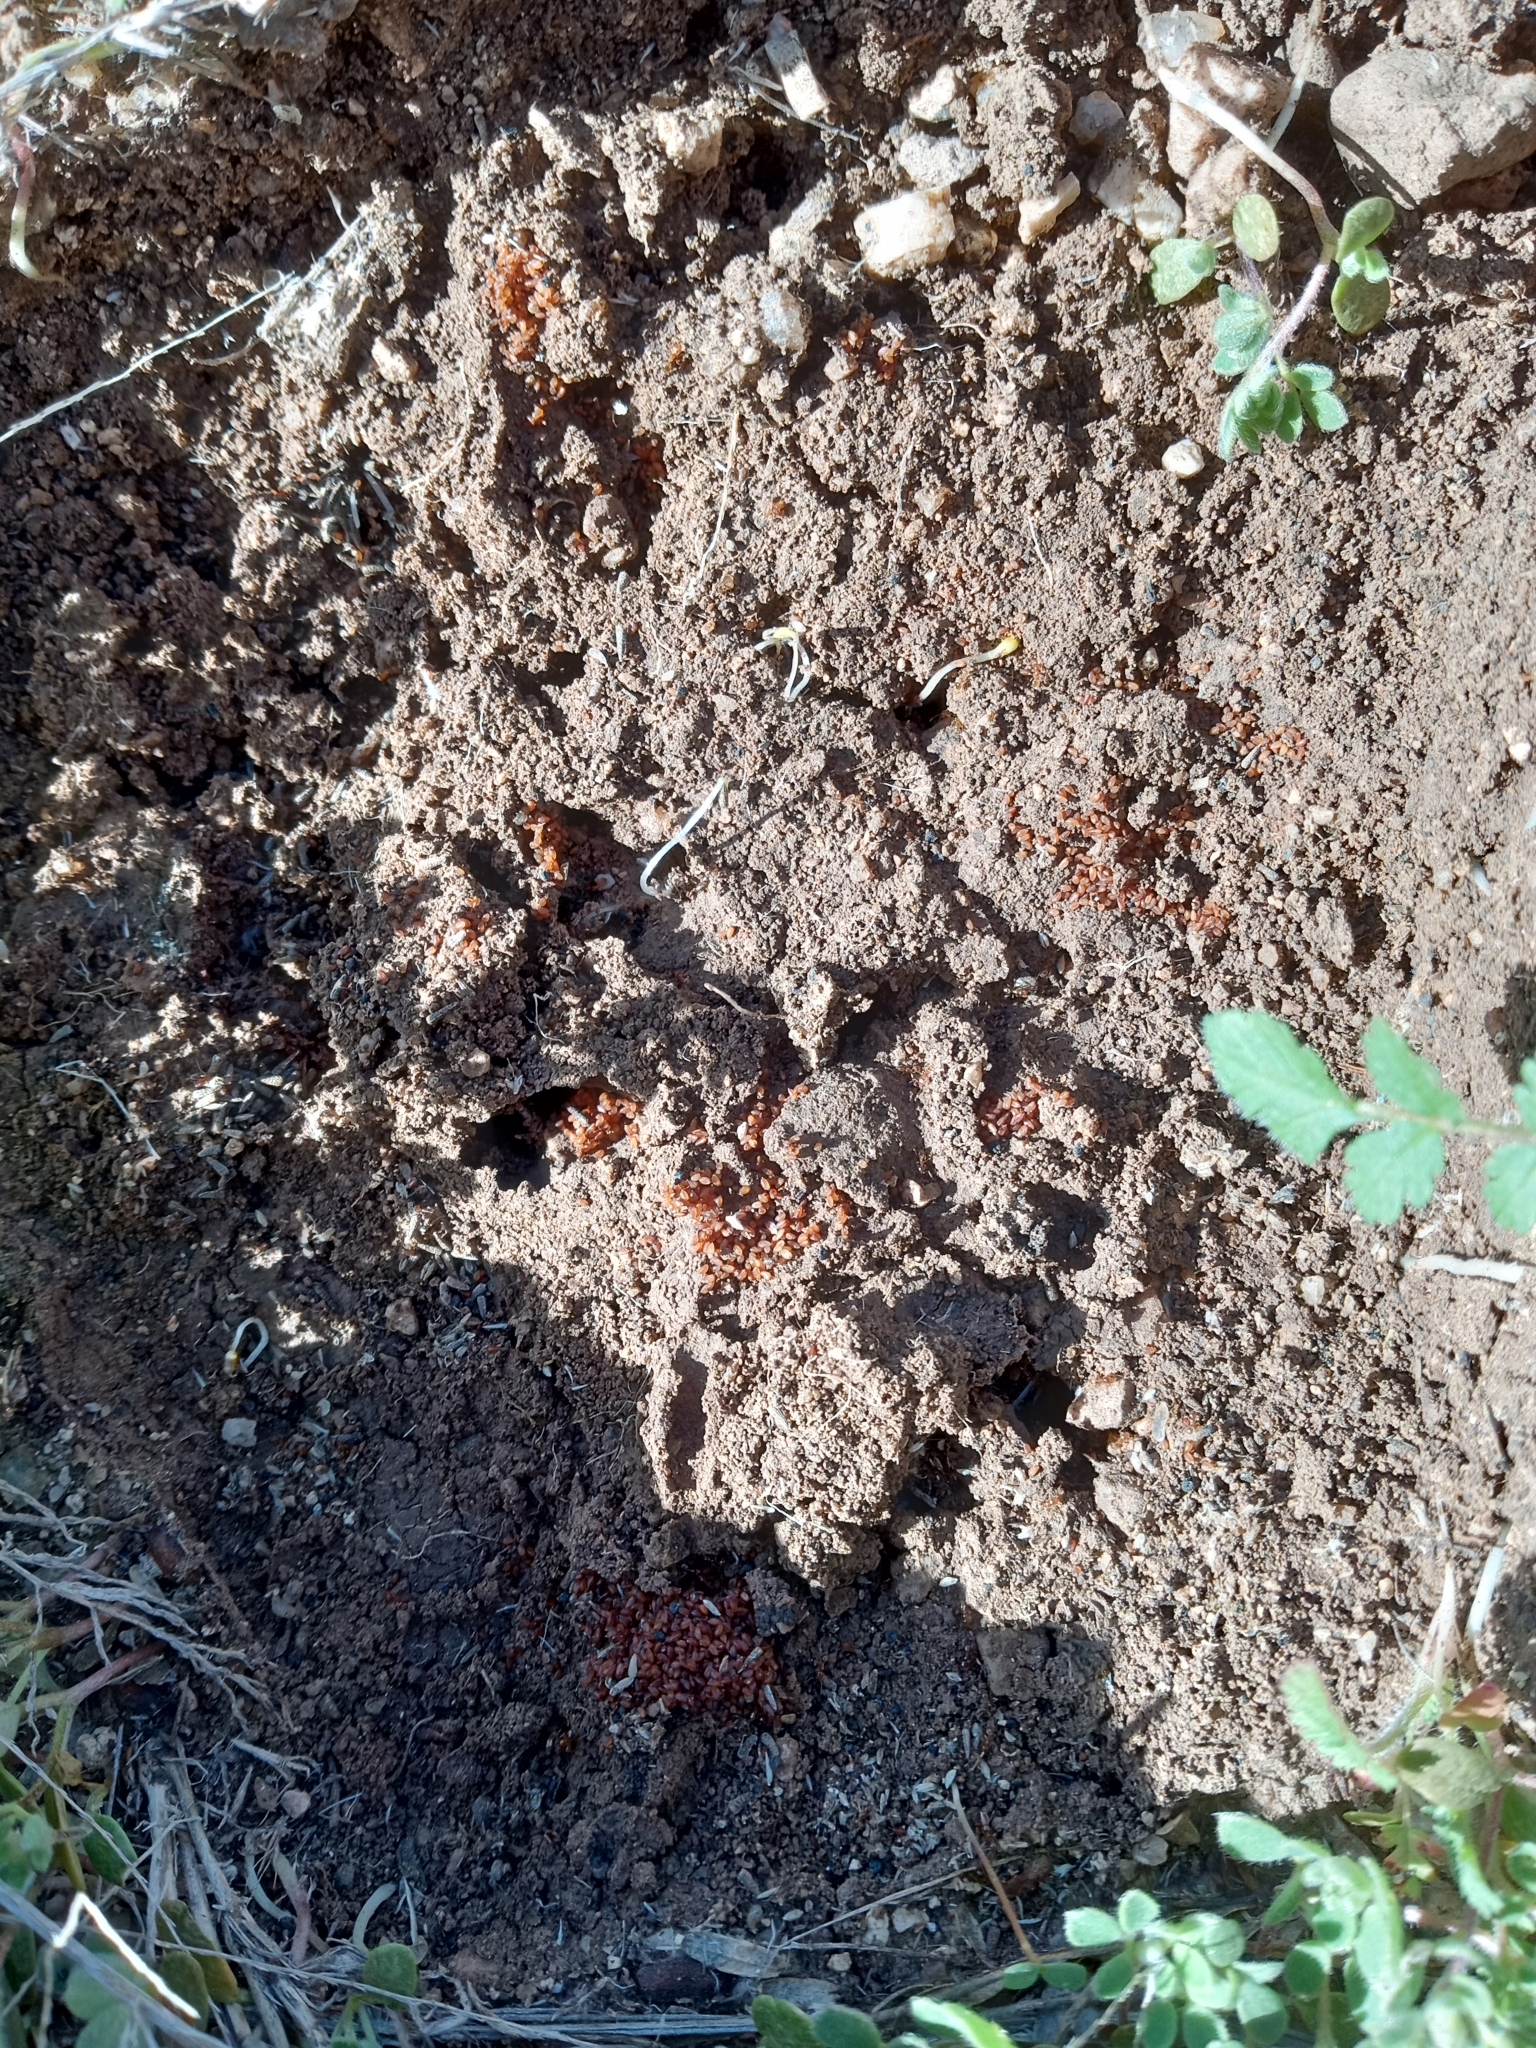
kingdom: Animalia
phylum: Arthropoda
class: Insecta
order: Hymenoptera
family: Formicidae
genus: Pheidole
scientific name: Pheidole
